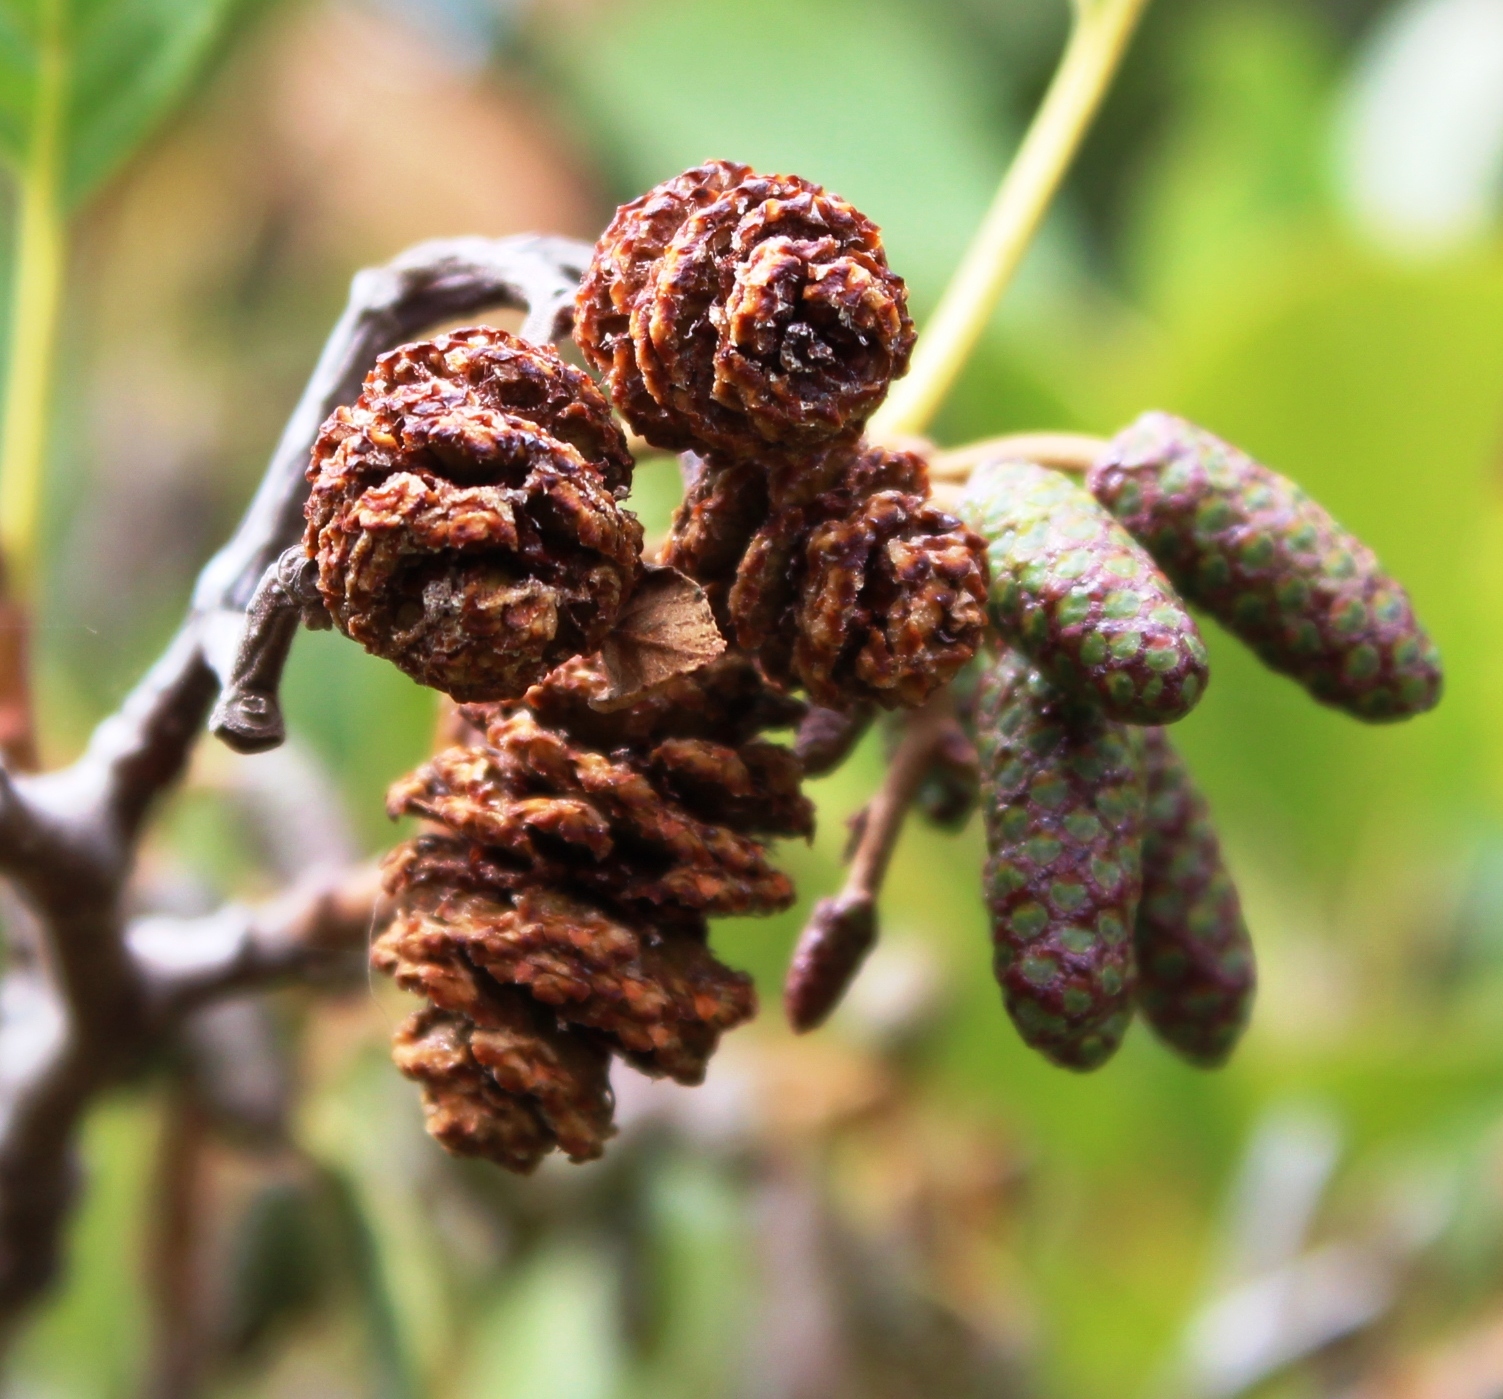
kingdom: Plantae
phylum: Tracheophyta
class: Magnoliopsida
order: Fagales
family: Betulaceae
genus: Alnus
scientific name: Alnus glutinosa
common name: Black alder
